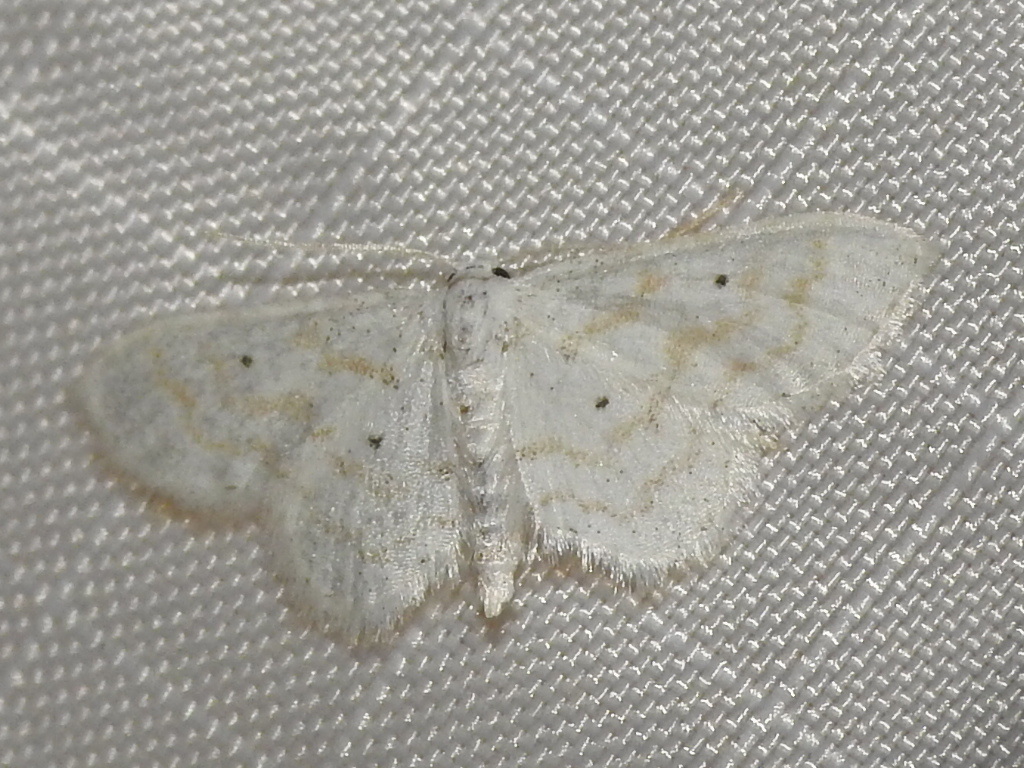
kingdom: Animalia
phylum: Arthropoda
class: Insecta
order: Lepidoptera
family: Geometridae
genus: Lobocleta
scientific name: Lobocleta peralbata
